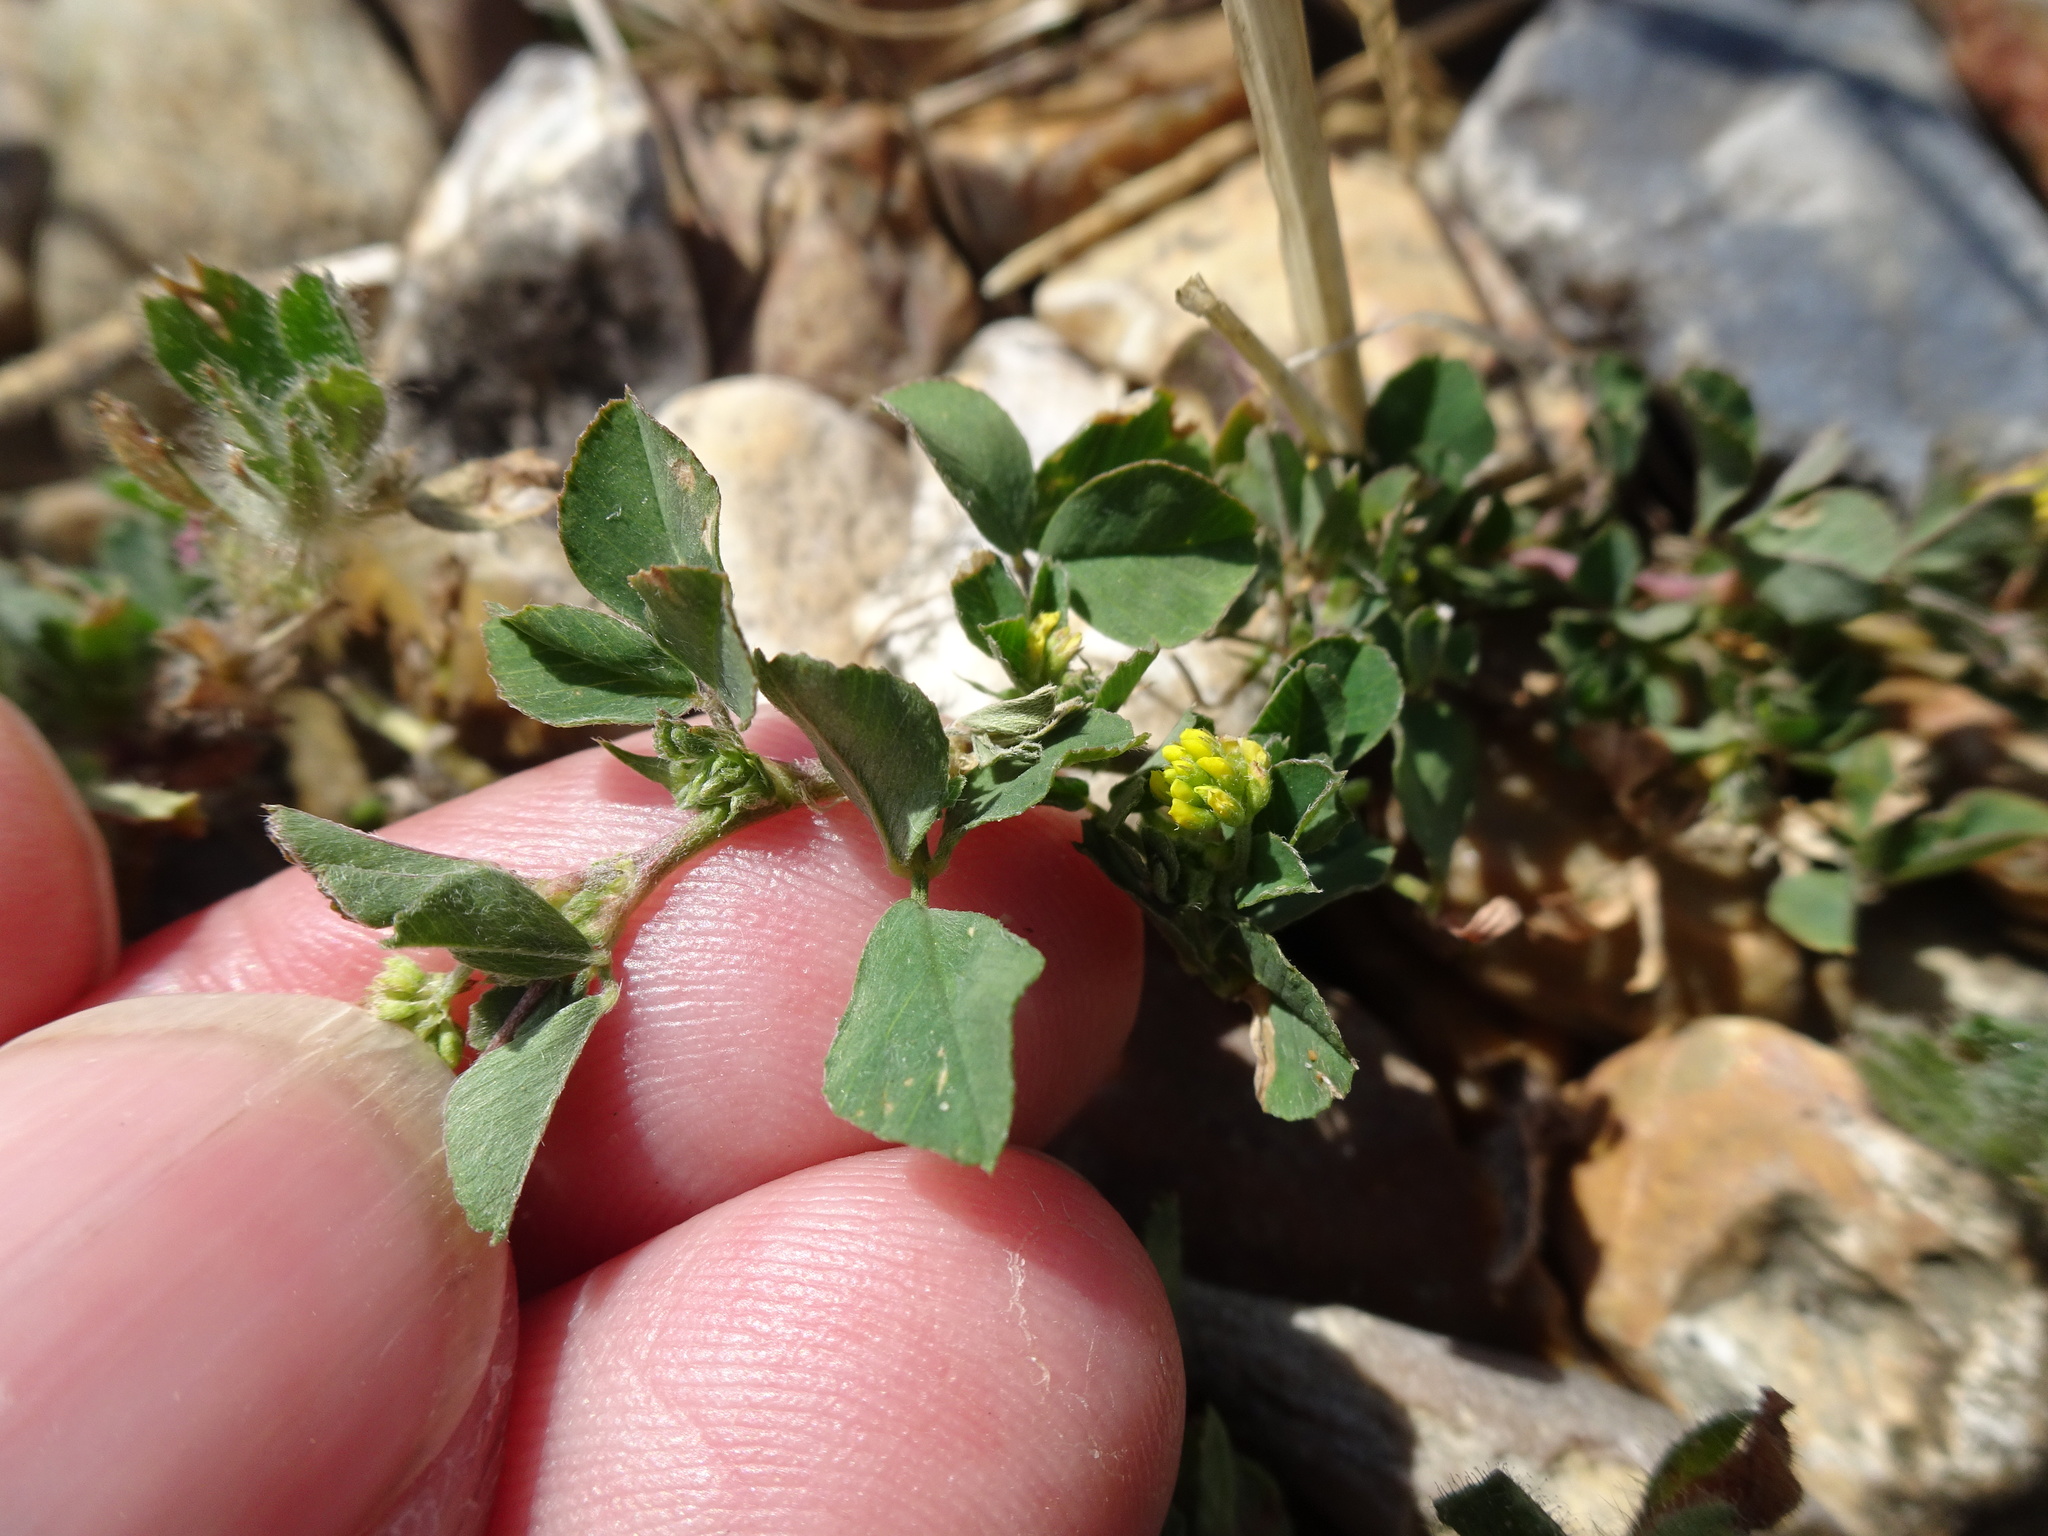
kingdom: Plantae
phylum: Tracheophyta
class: Magnoliopsida
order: Fabales
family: Fabaceae
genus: Medicago
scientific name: Medicago lupulina
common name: Black medick
